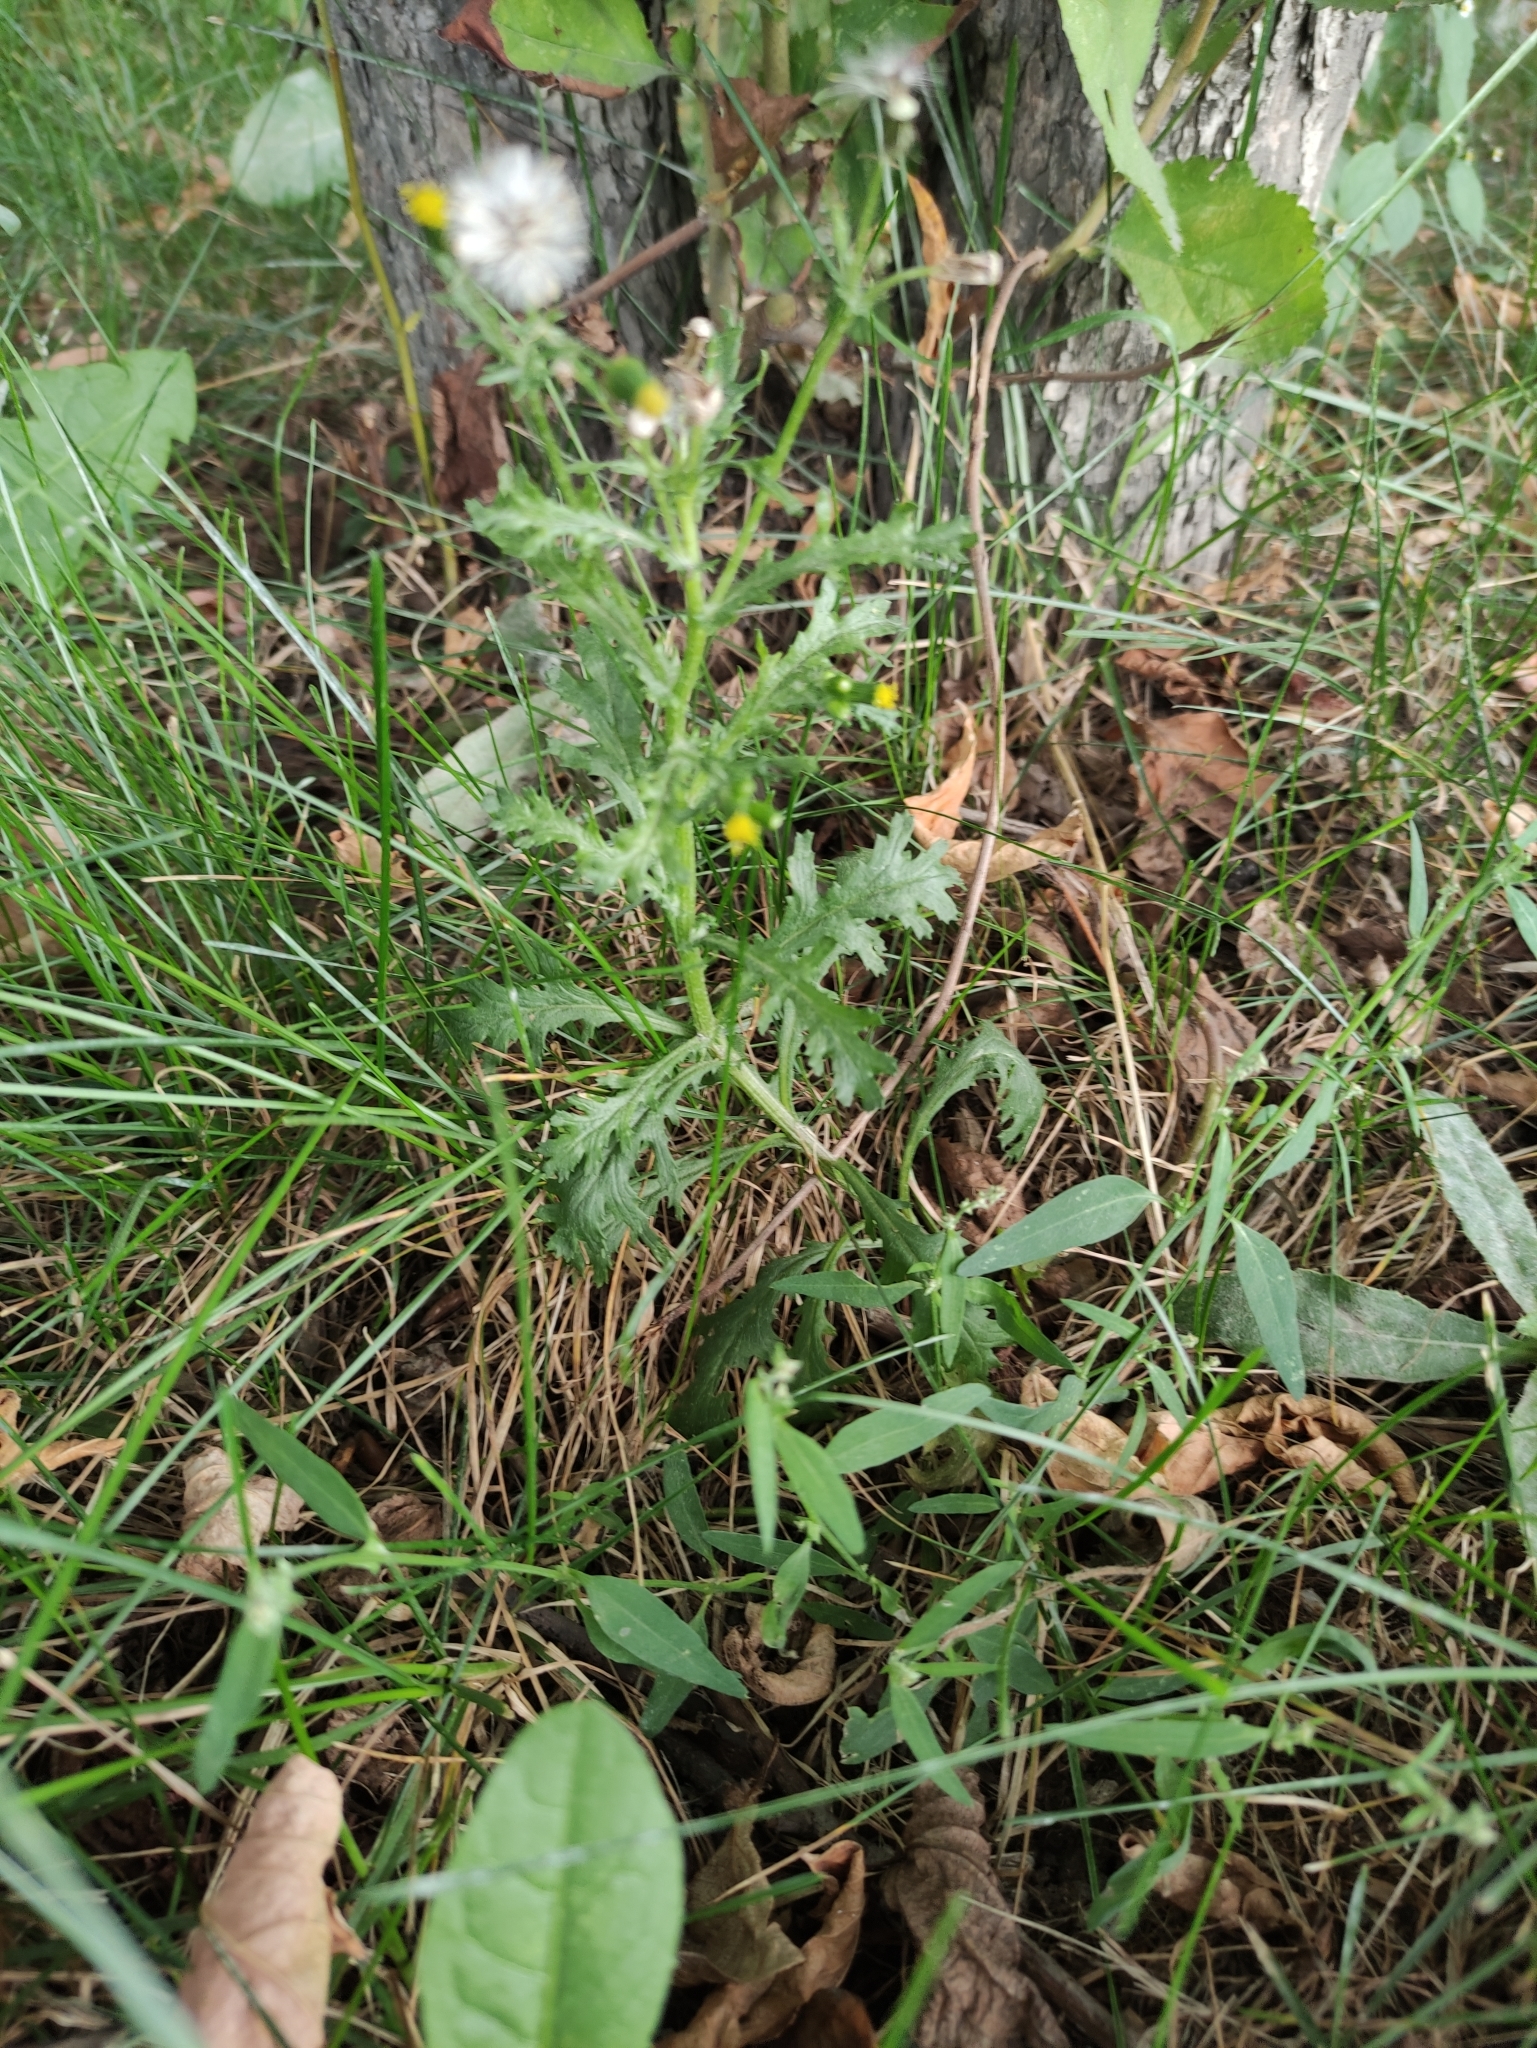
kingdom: Plantae
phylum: Tracheophyta
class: Magnoliopsida
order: Asterales
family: Asteraceae
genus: Senecio
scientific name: Senecio vulgaris
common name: Old-man-in-the-spring
